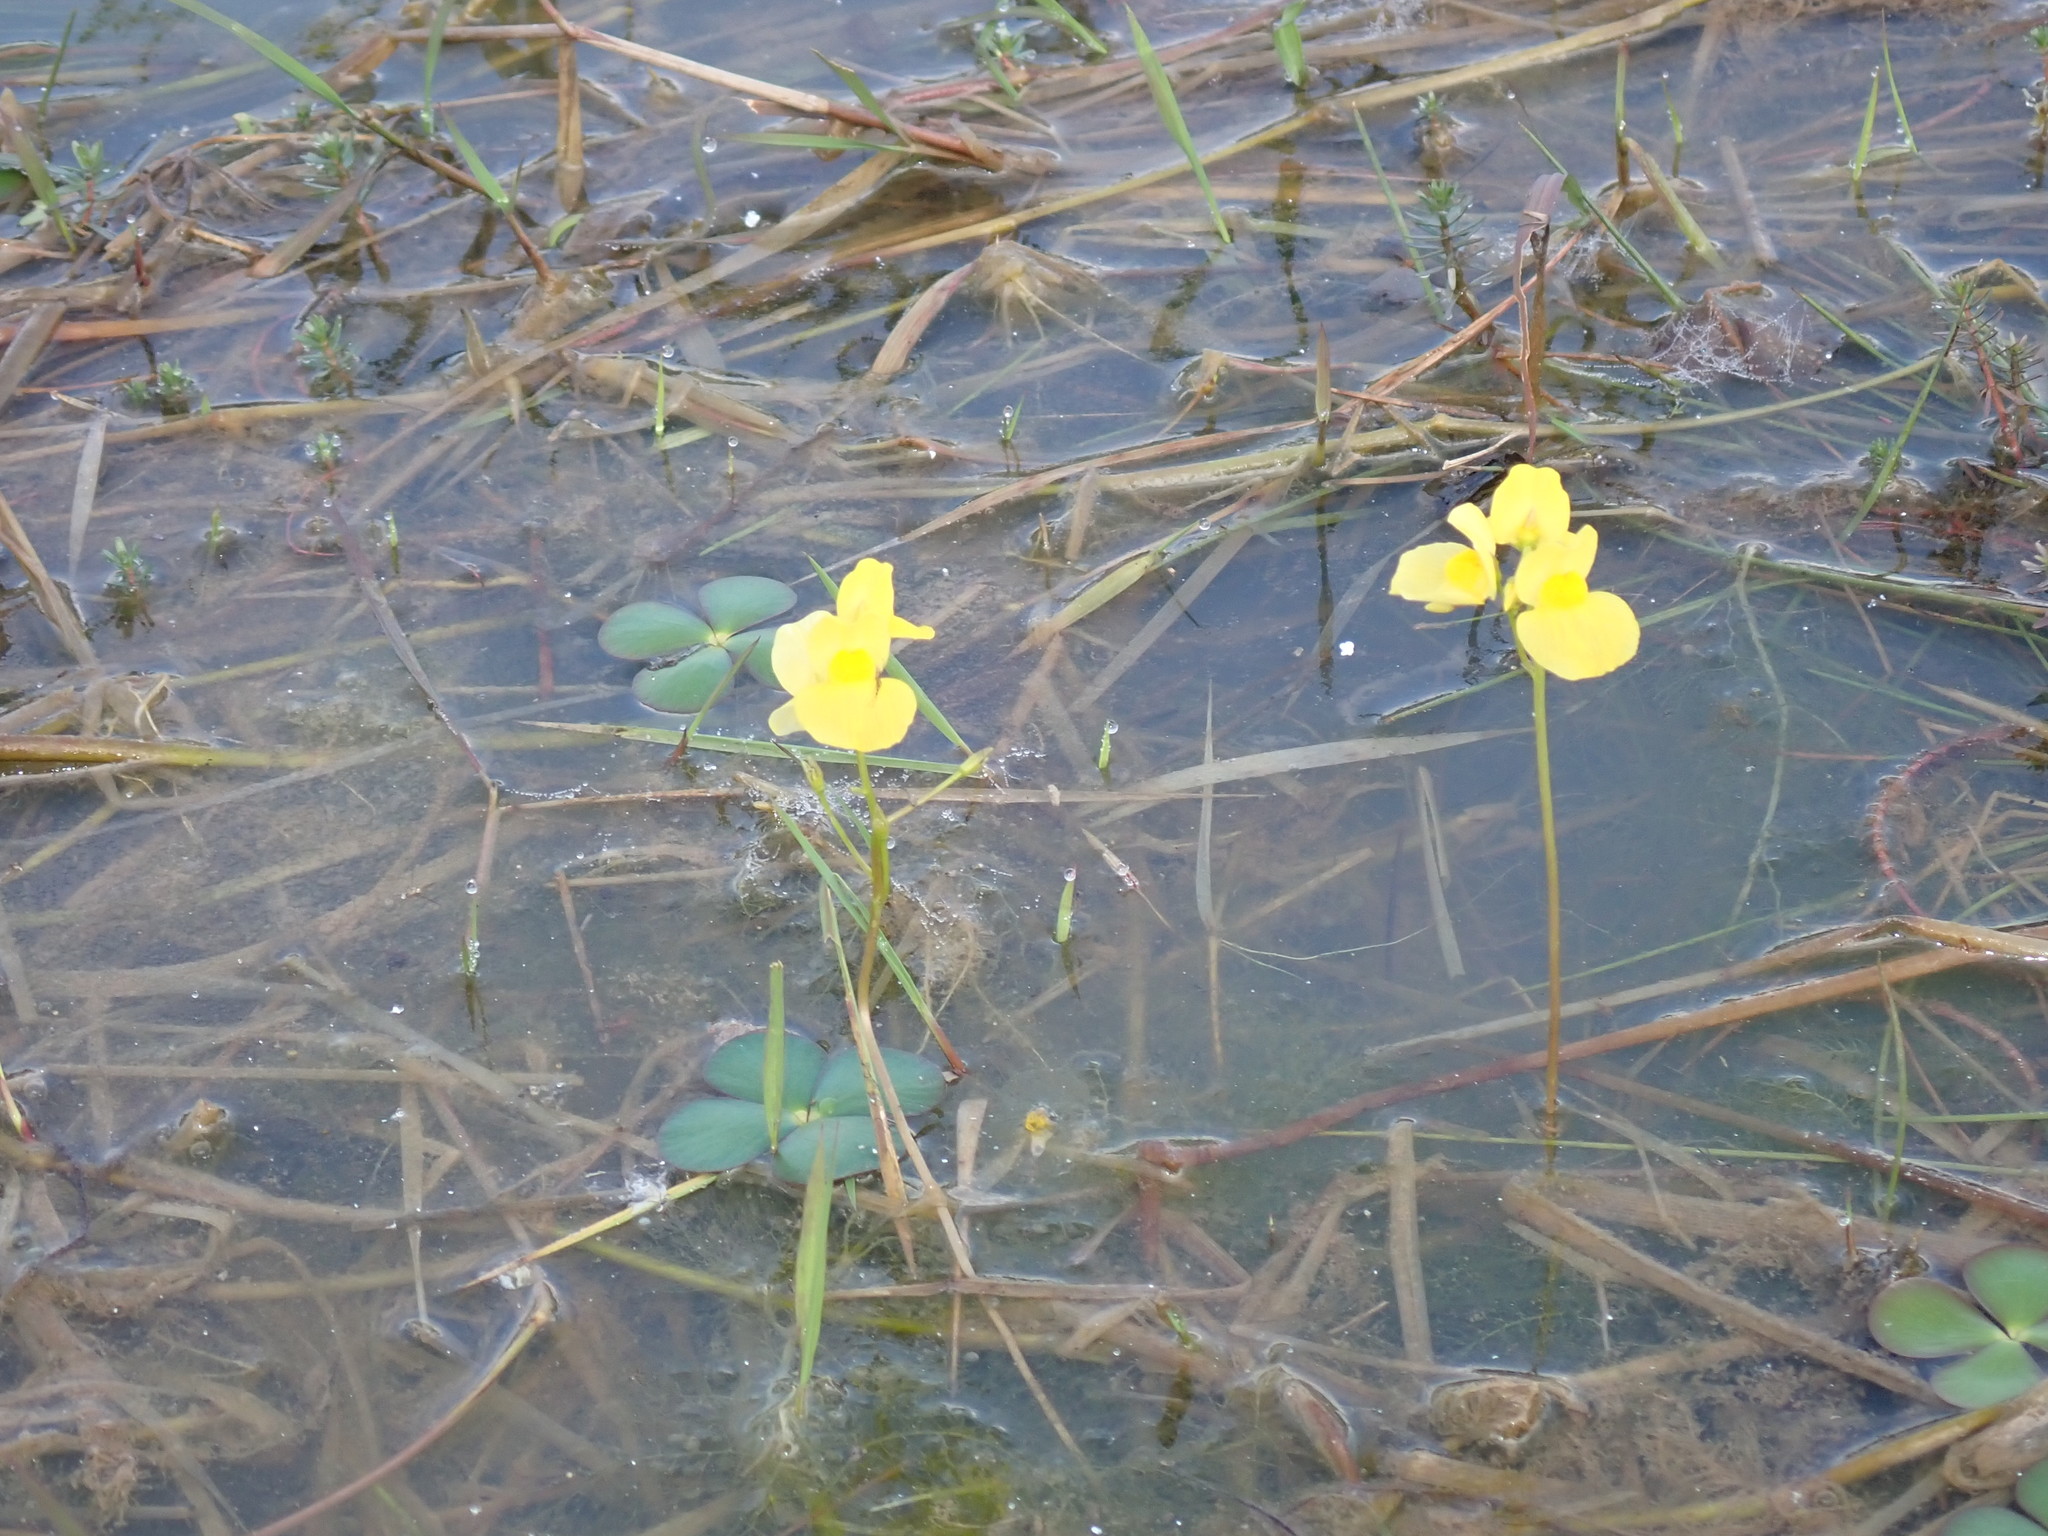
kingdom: Plantae
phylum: Tracheophyta
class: Magnoliopsida
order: Lamiales
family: Lentibulariaceae
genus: Utricularia
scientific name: Utricularia aurea
